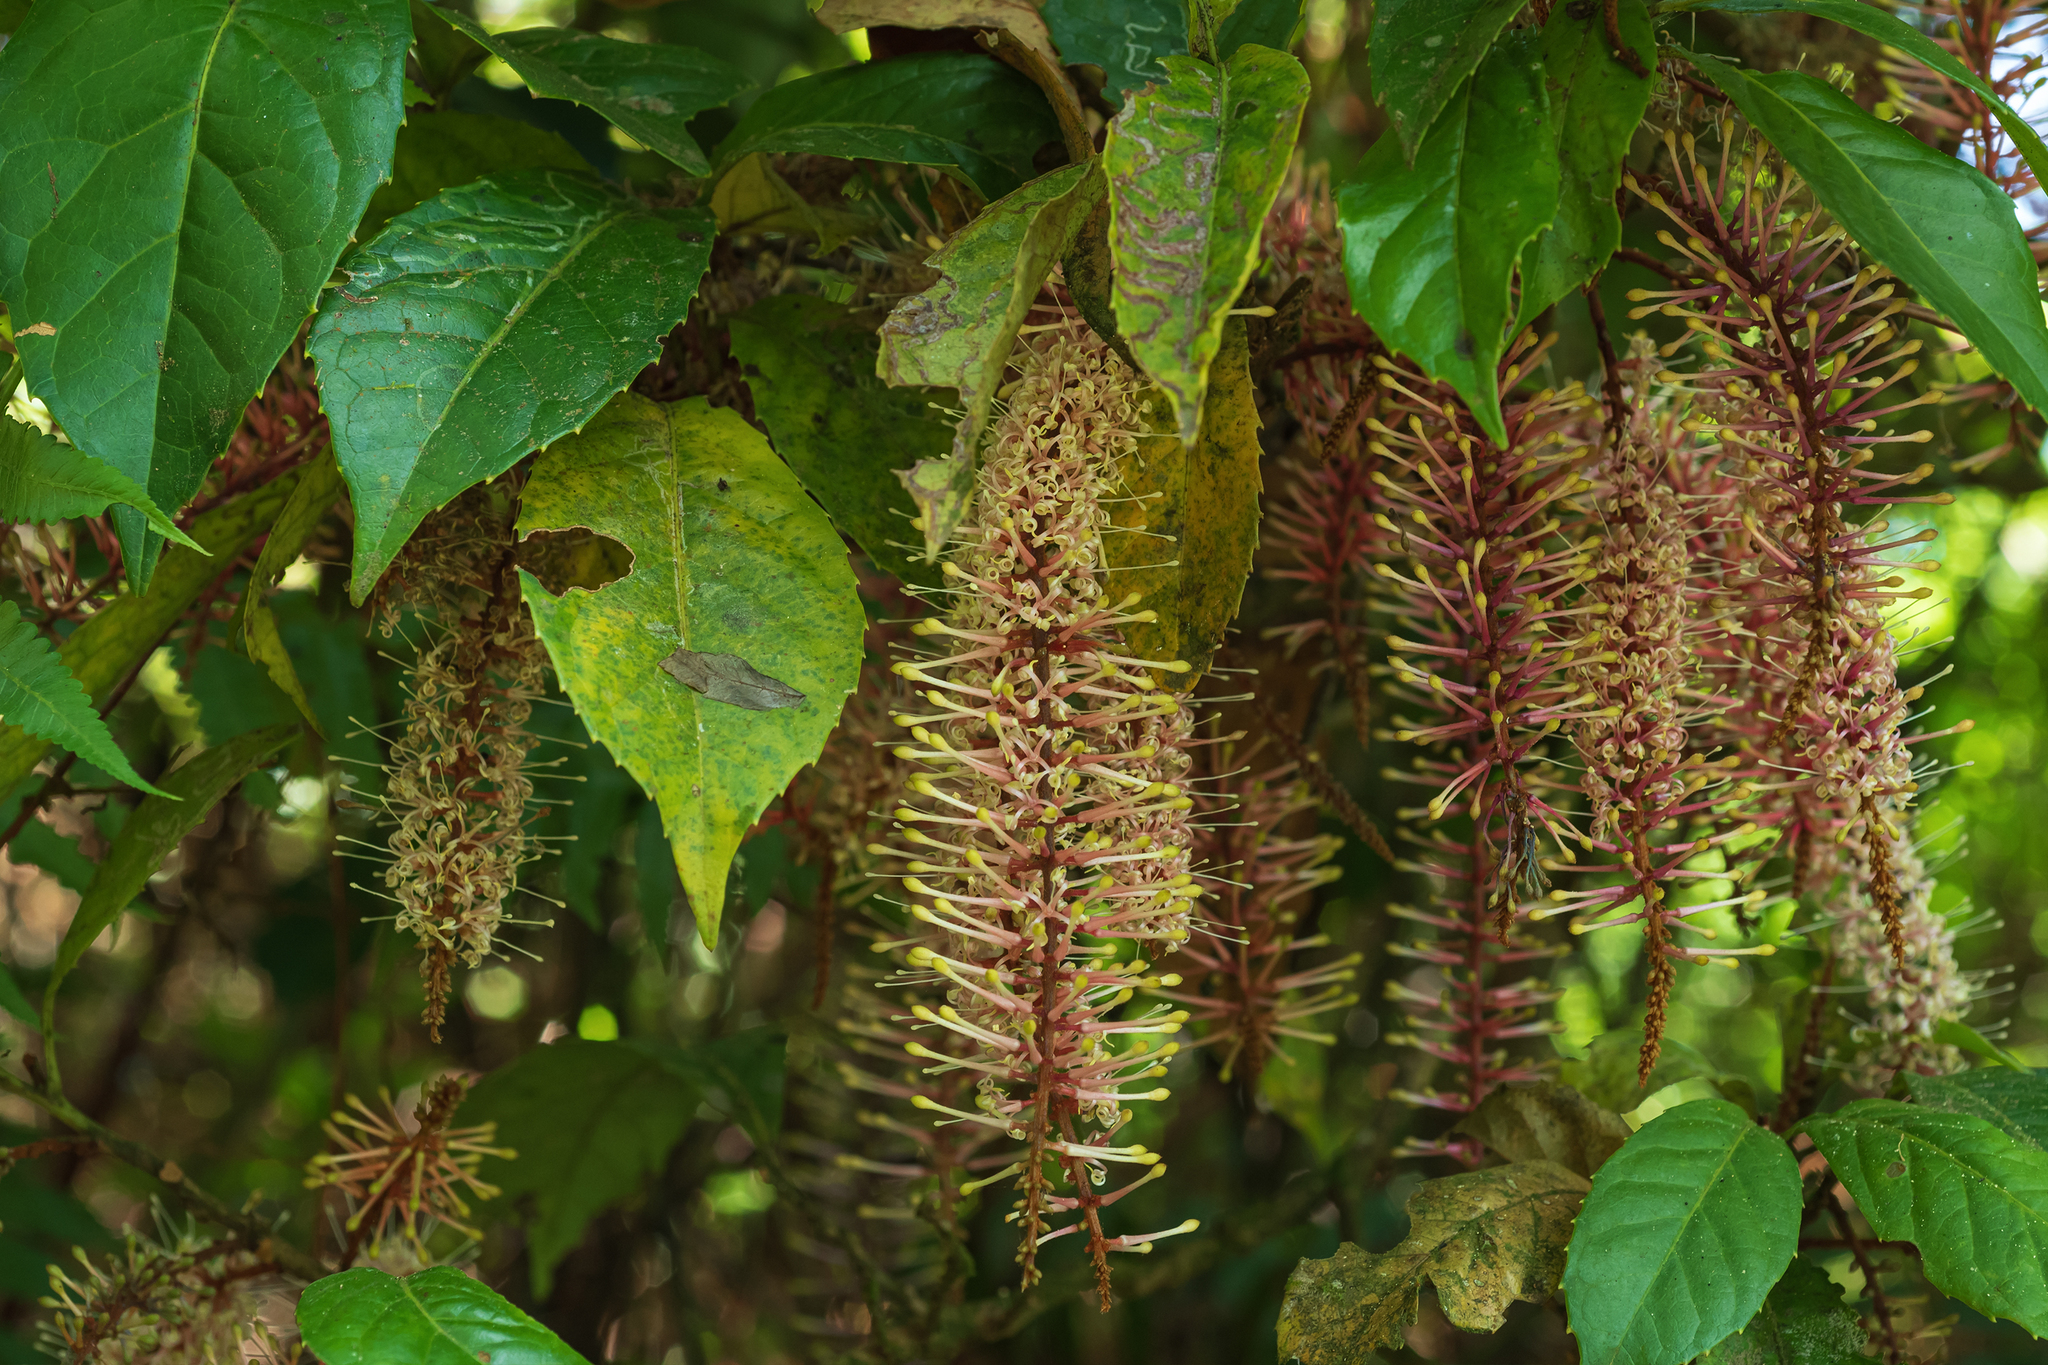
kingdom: Plantae
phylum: Tracheophyta
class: Magnoliopsida
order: Proteales
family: Proteaceae
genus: Helicia
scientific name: Helicia formosana
